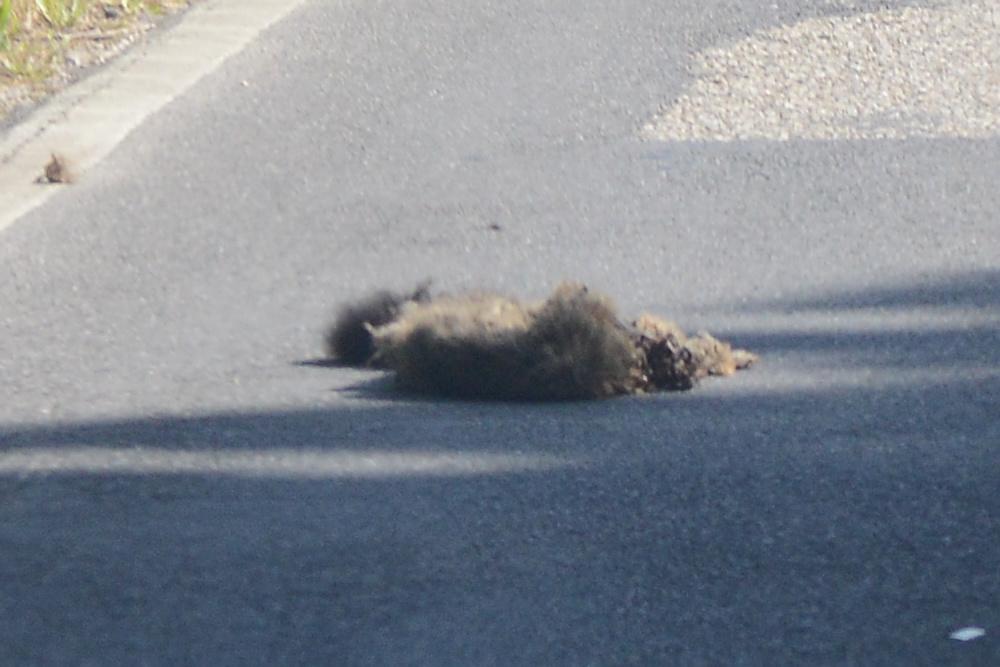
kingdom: Animalia
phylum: Chordata
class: Mammalia
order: Diprotodontia
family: Phalangeridae
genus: Trichosurus
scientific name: Trichosurus vulpecula
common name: Common brushtail
